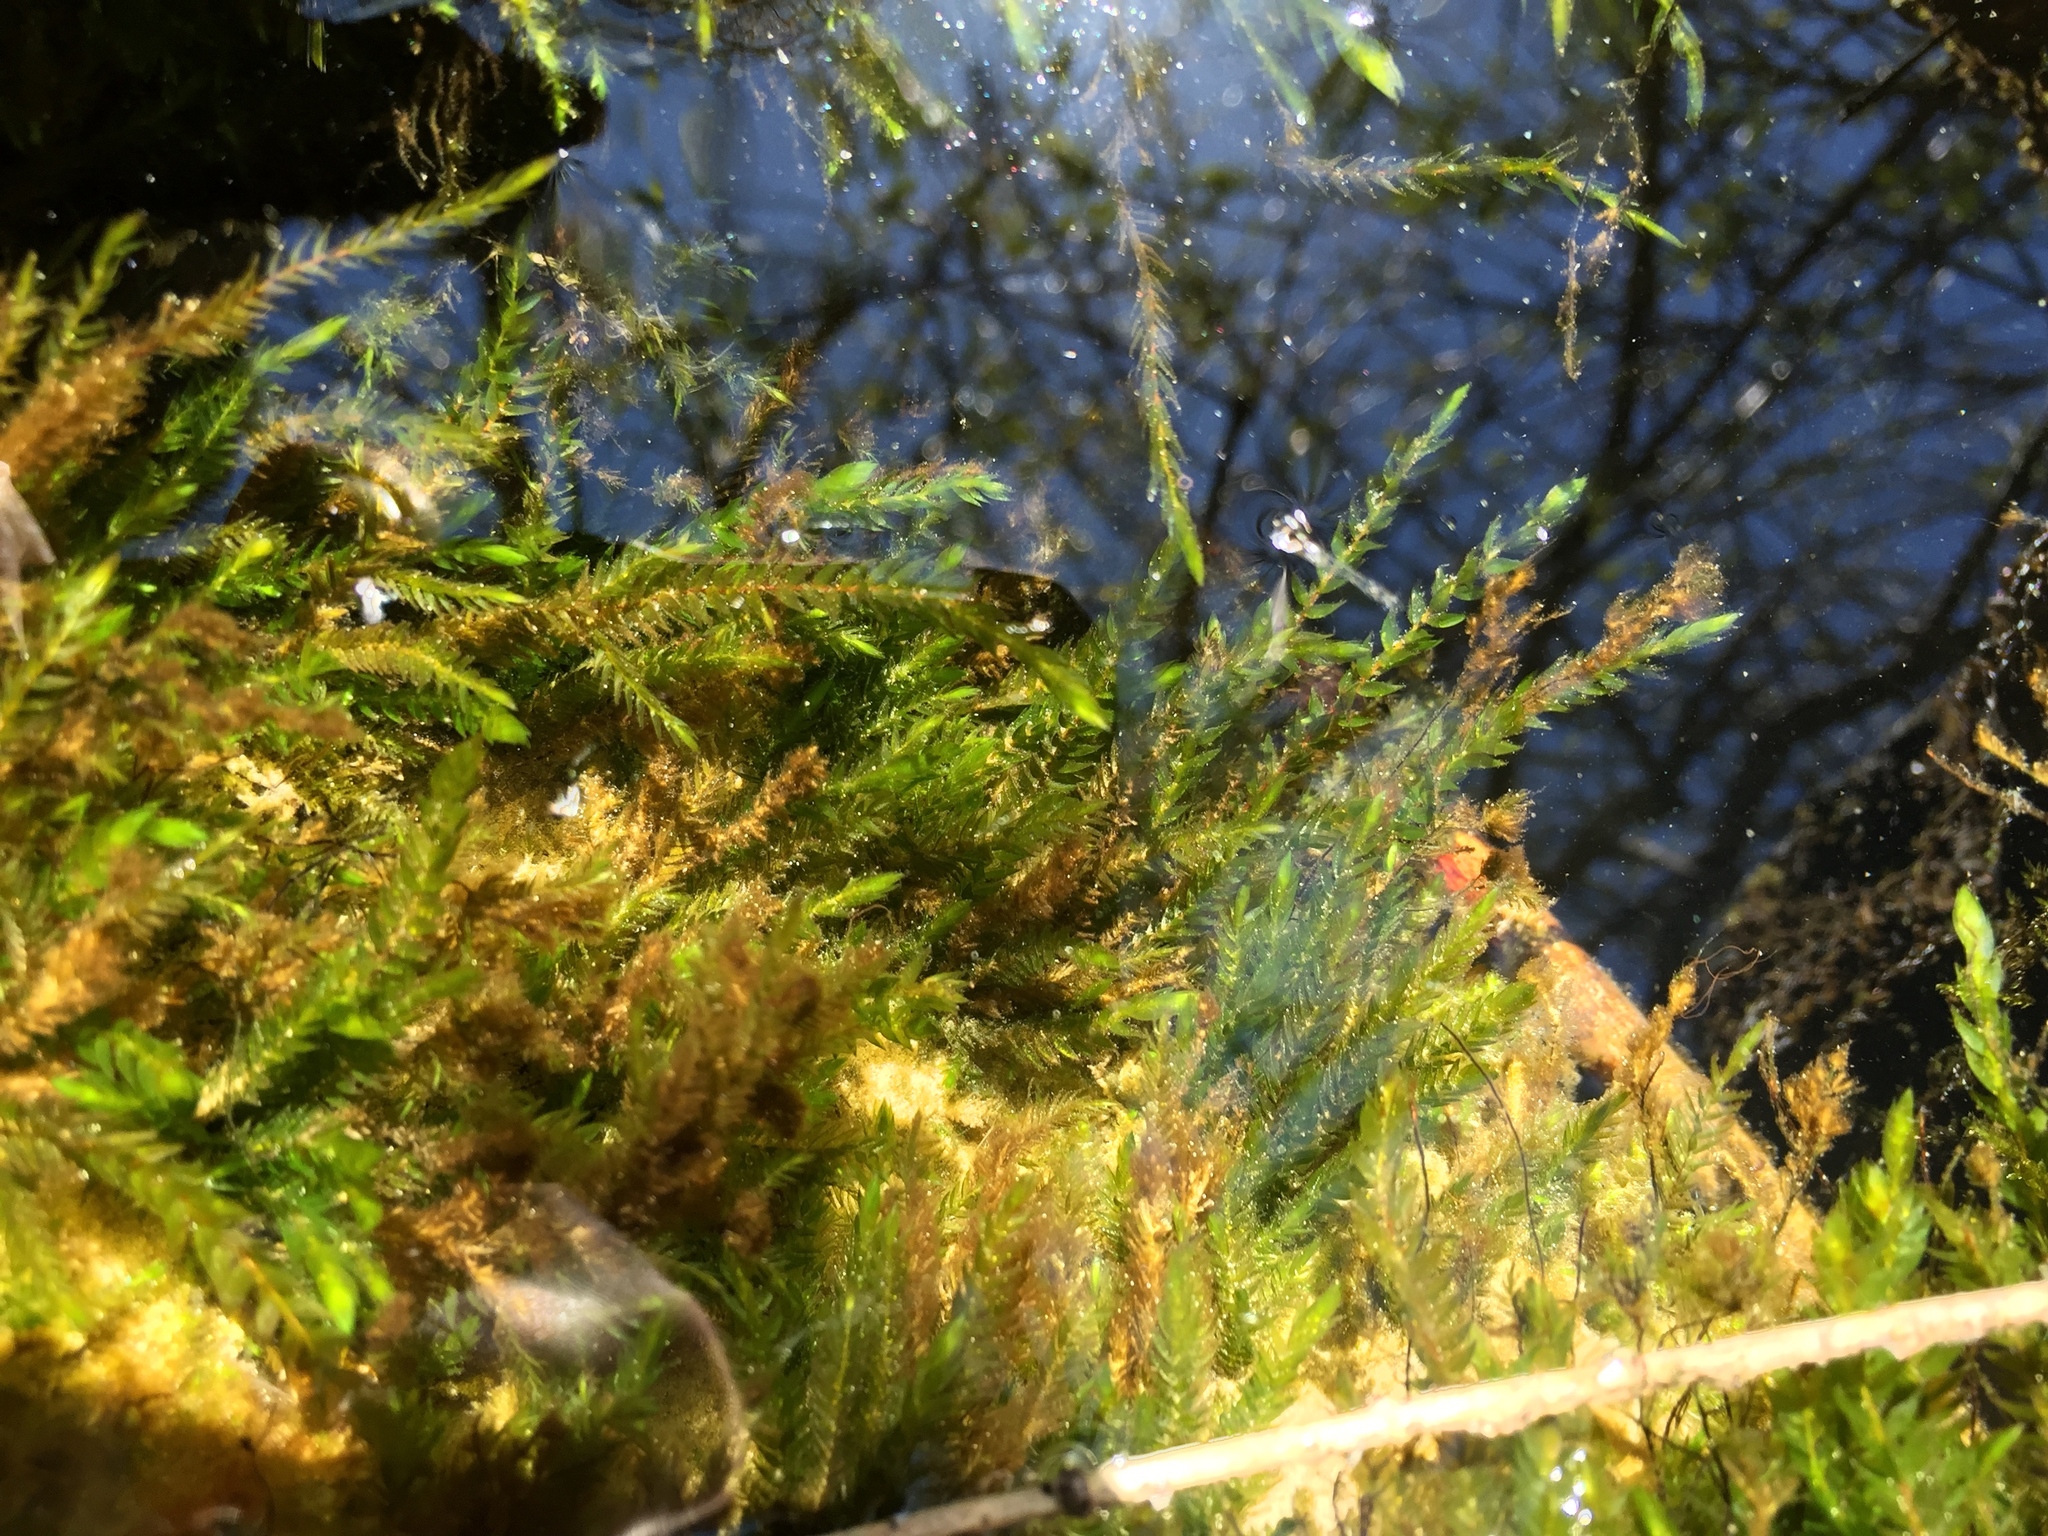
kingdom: Plantae
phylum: Bryophyta
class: Bryopsida
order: Hypnales
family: Fontinalaceae
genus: Fontinalis
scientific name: Fontinalis antipyretica
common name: Greater water-moss
